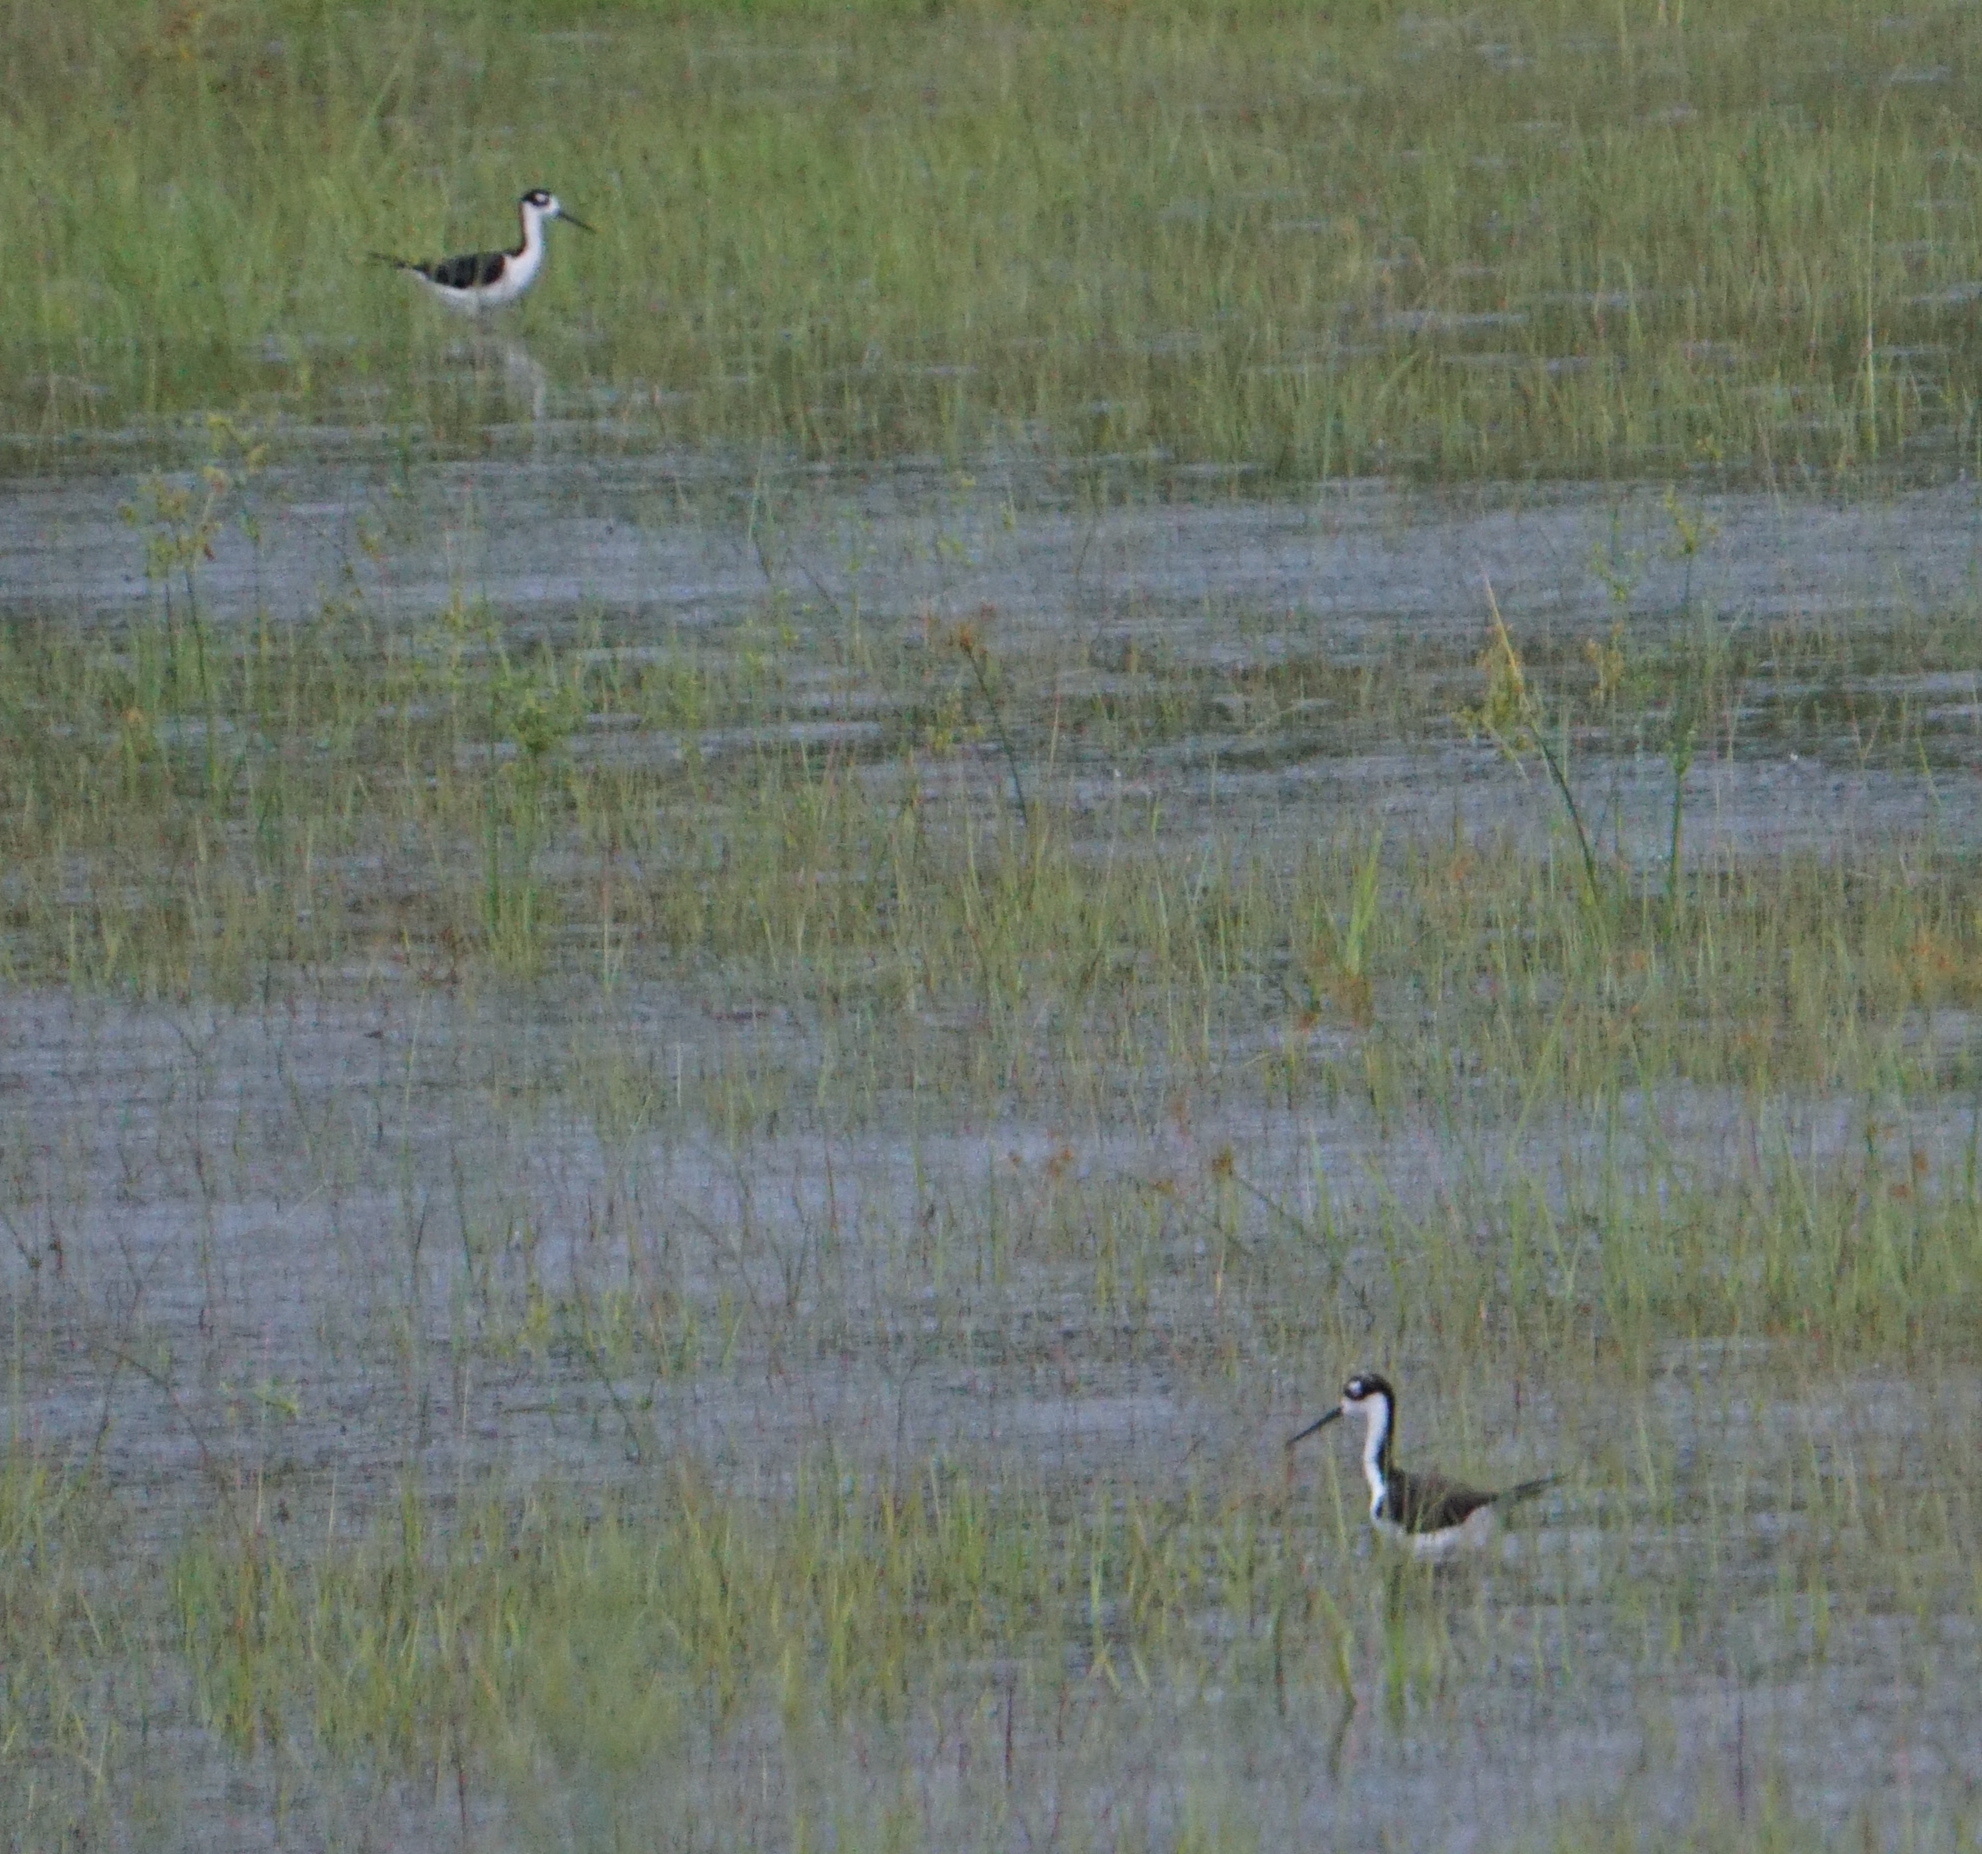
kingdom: Animalia
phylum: Chordata
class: Aves
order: Charadriiformes
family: Recurvirostridae
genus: Himantopus
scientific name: Himantopus mexicanus
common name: Black-necked stilt
